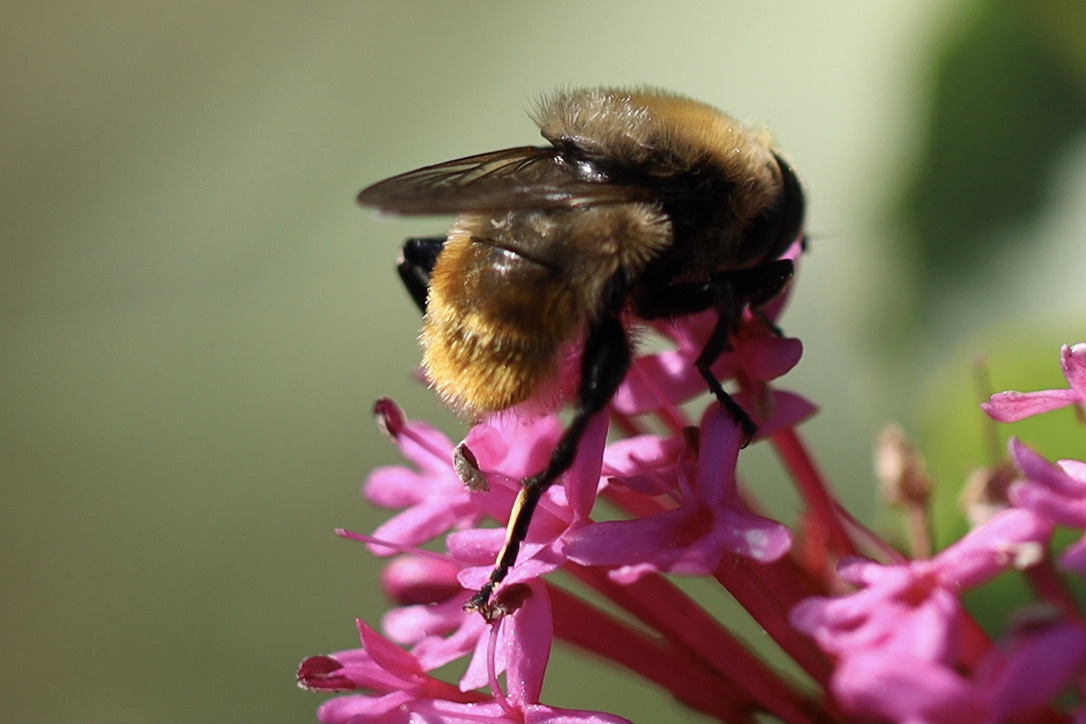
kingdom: Animalia
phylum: Arthropoda
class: Insecta
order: Diptera
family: Syrphidae
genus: Merodon
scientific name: Merodon equestris
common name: Greater bulb-fly
